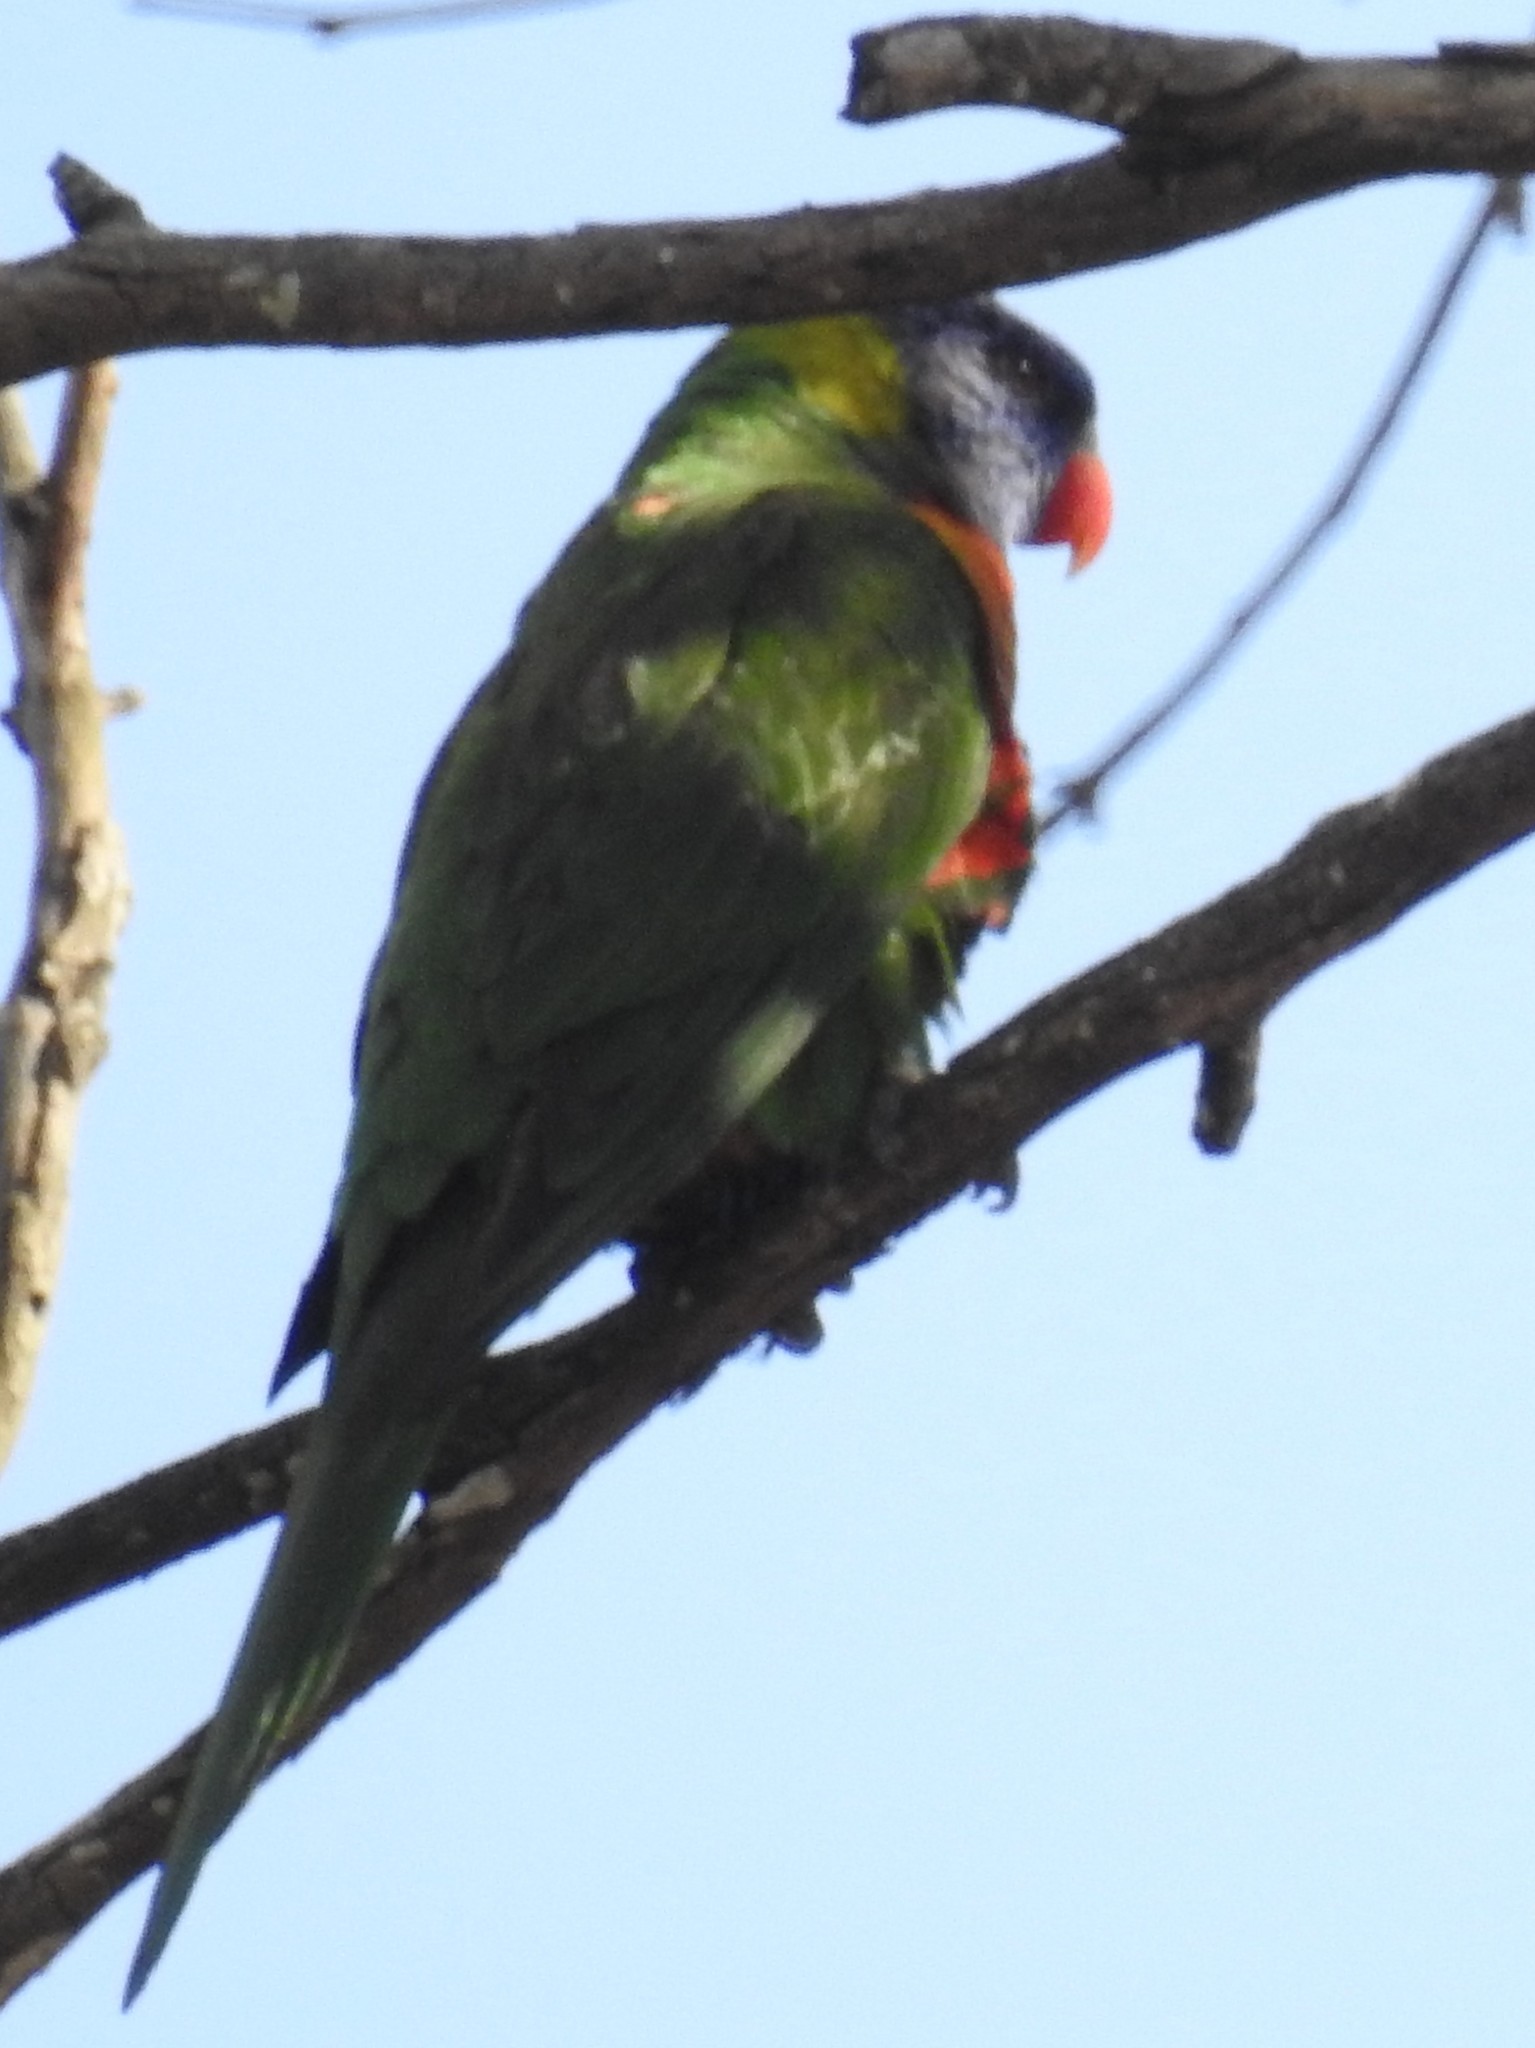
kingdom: Animalia
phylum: Chordata
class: Aves
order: Psittaciformes
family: Psittacidae
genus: Trichoglossus
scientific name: Trichoglossus haematodus
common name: Coconut lorikeet
